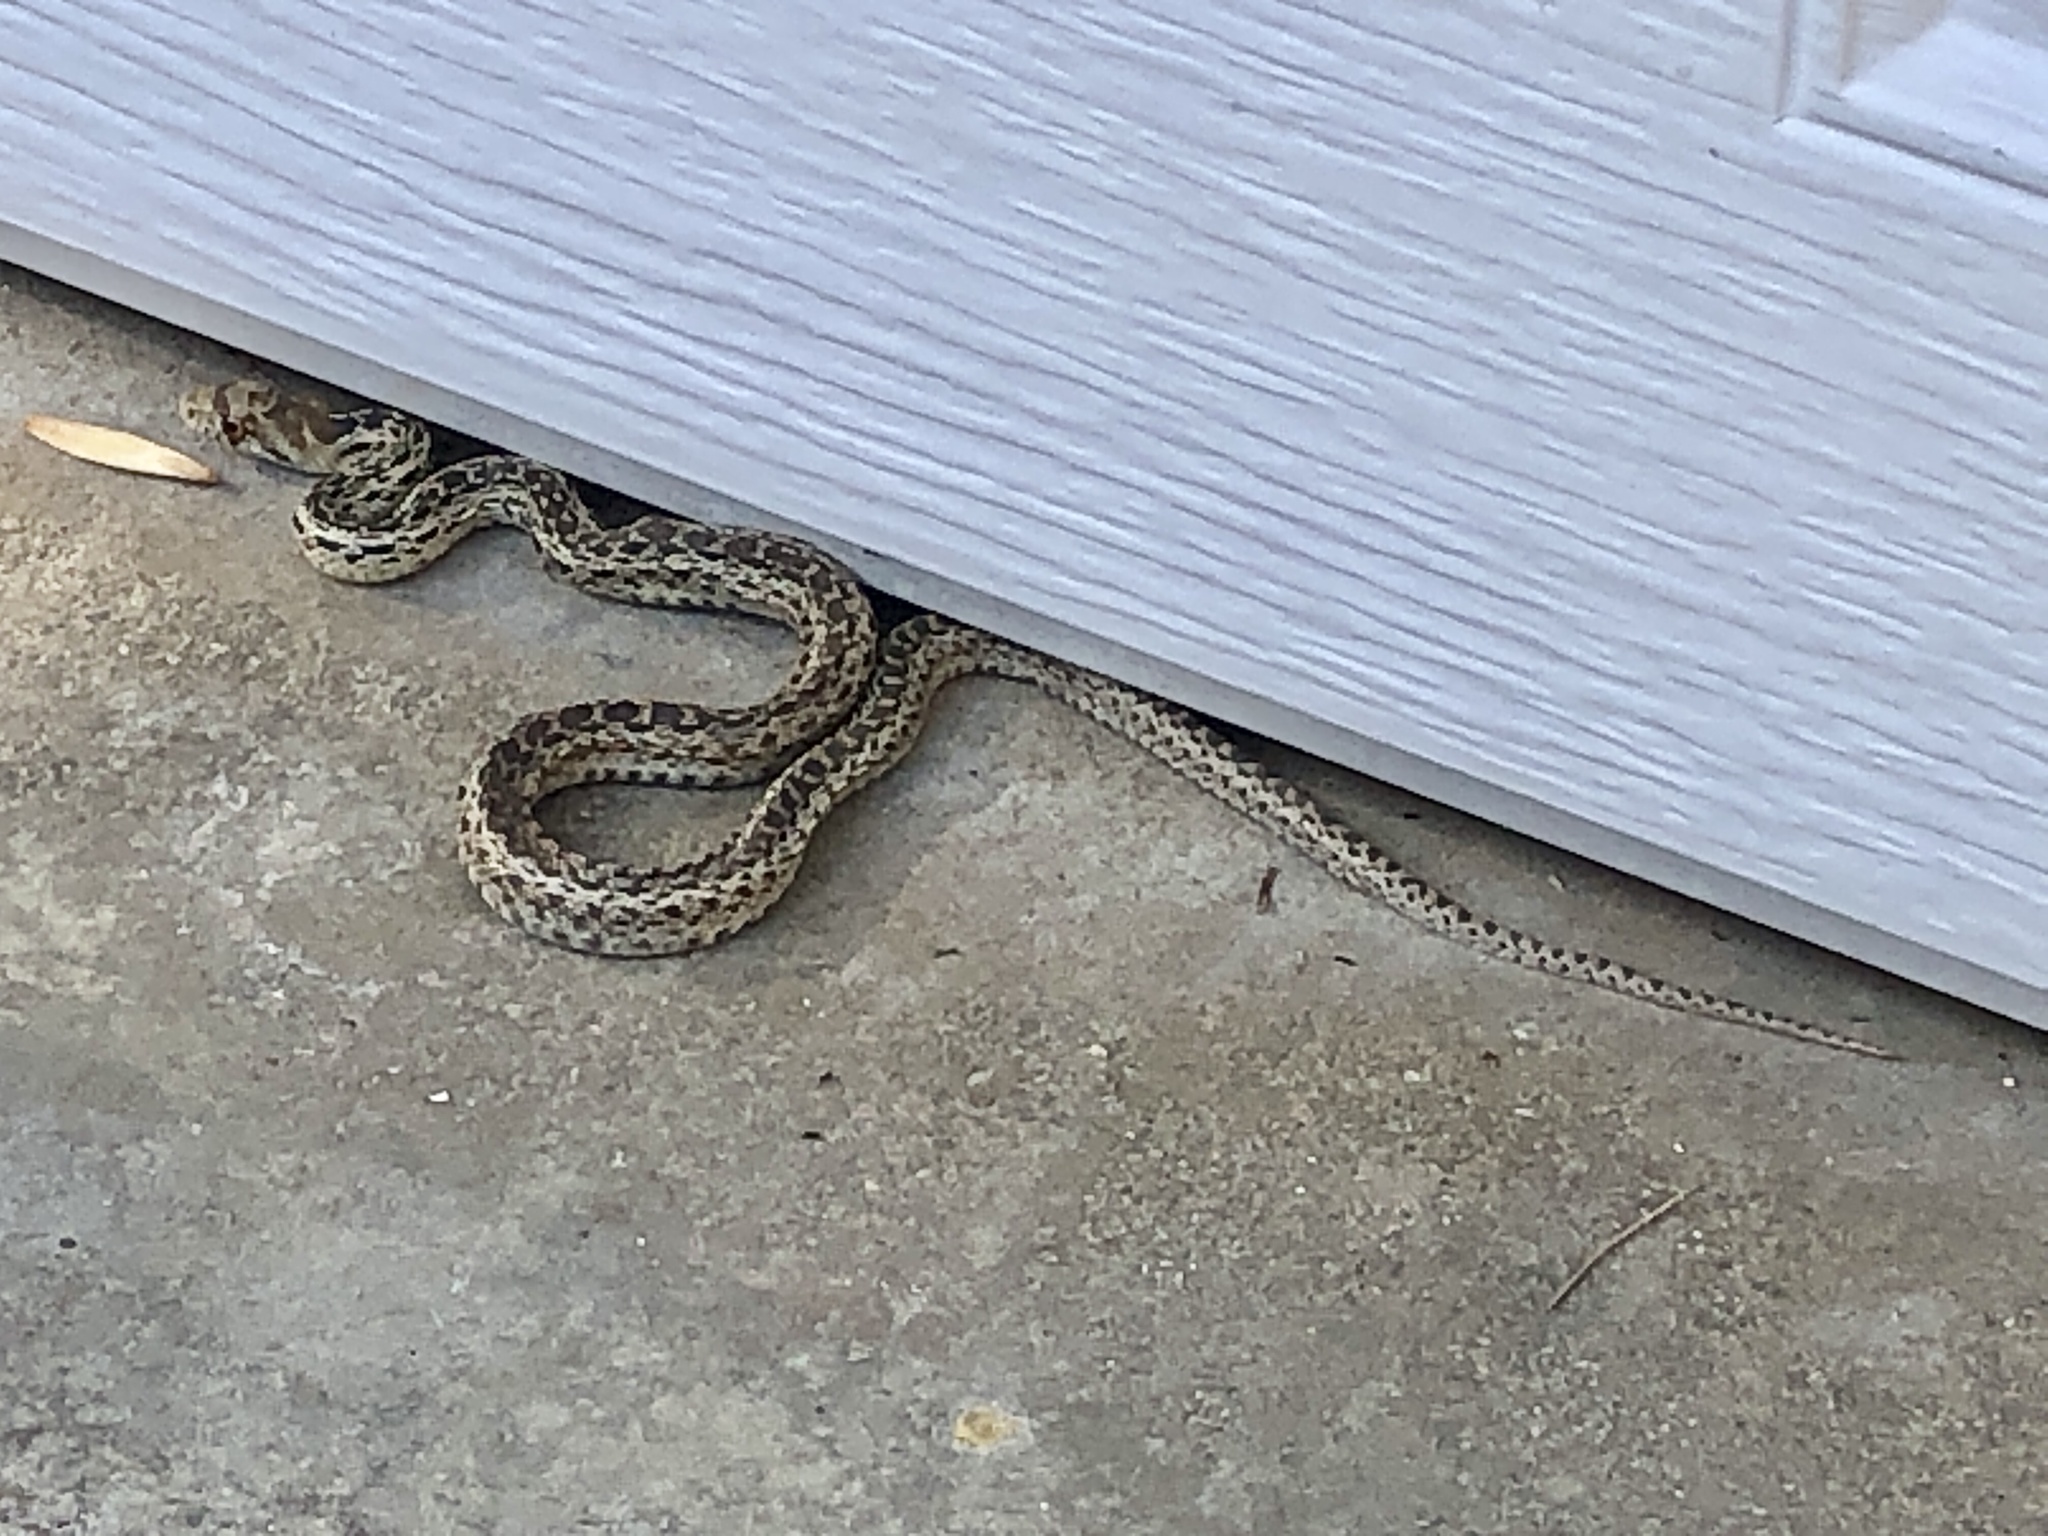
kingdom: Animalia
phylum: Chordata
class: Squamata
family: Colubridae
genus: Pituophis
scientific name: Pituophis catenifer
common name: Gopher snake
